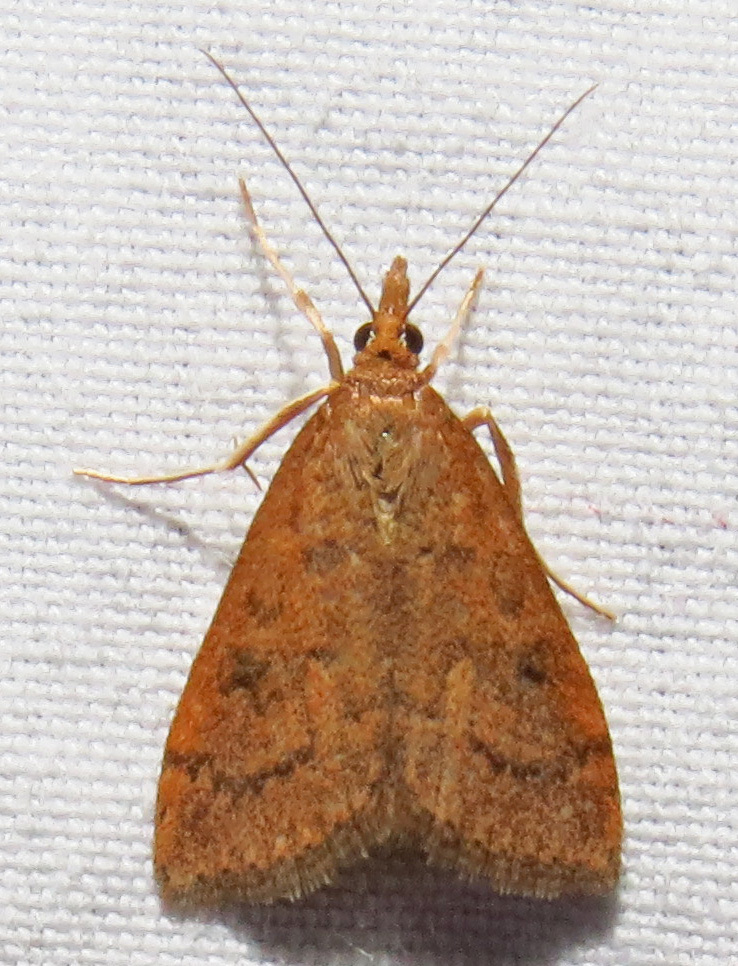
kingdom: Animalia
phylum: Arthropoda
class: Insecta
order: Lepidoptera
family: Crambidae
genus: Udea
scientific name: Udea rubigalis
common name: Celery leaftier moth
